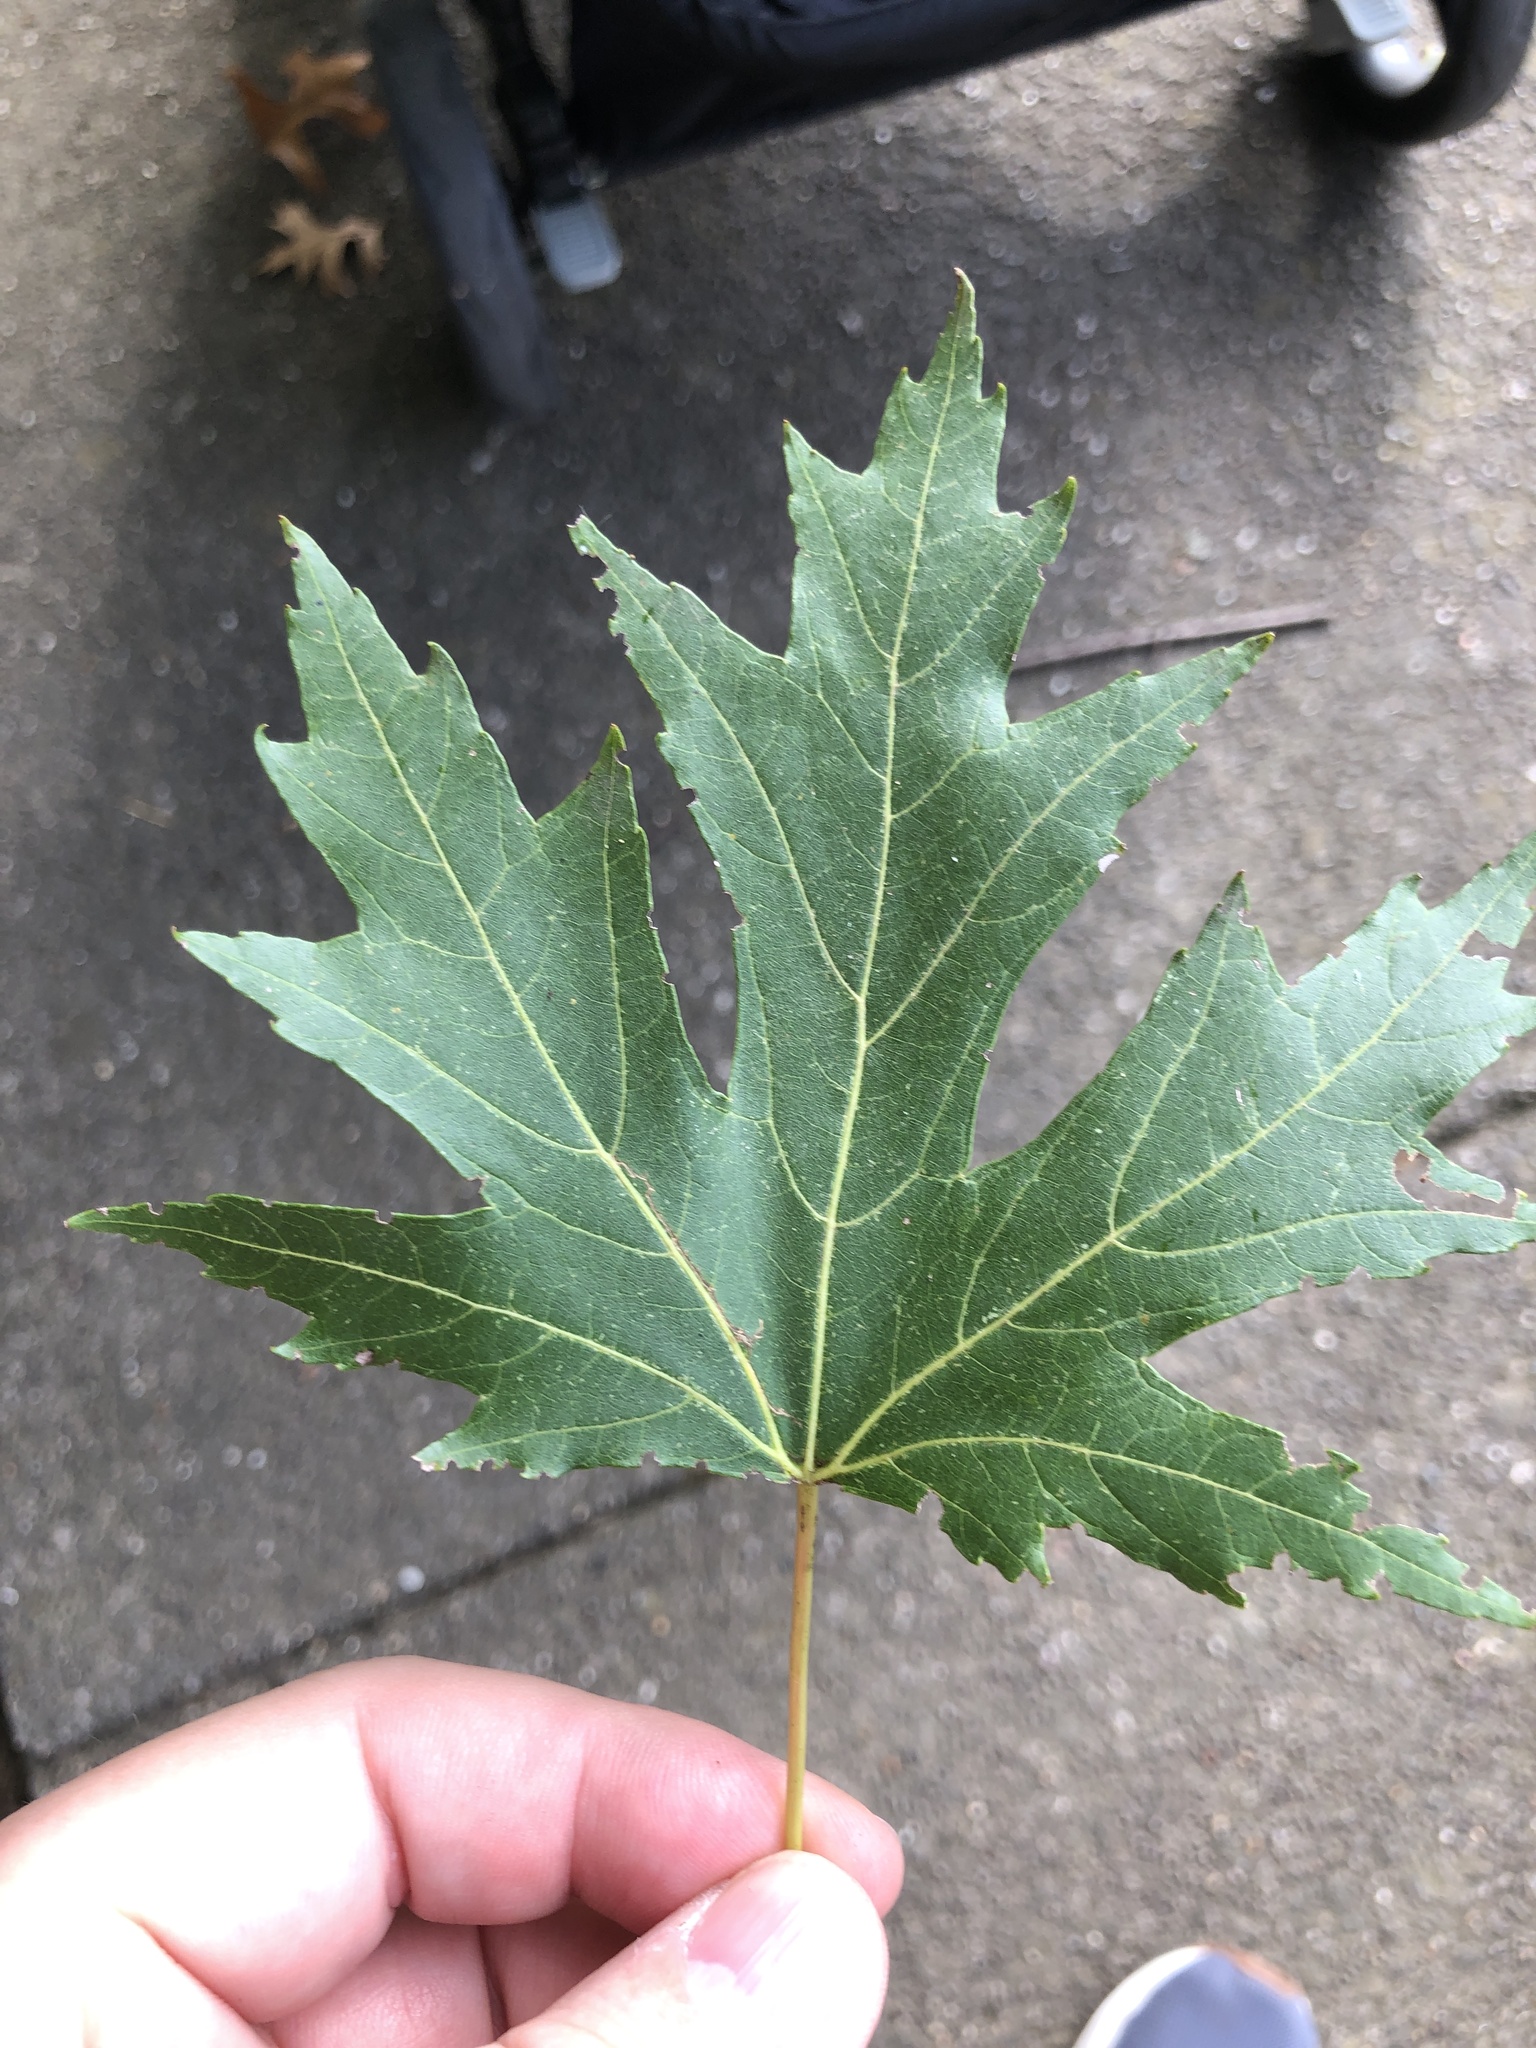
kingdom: Plantae
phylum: Tracheophyta
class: Magnoliopsida
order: Sapindales
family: Sapindaceae
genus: Acer
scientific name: Acer saccharinum
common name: Silver maple
